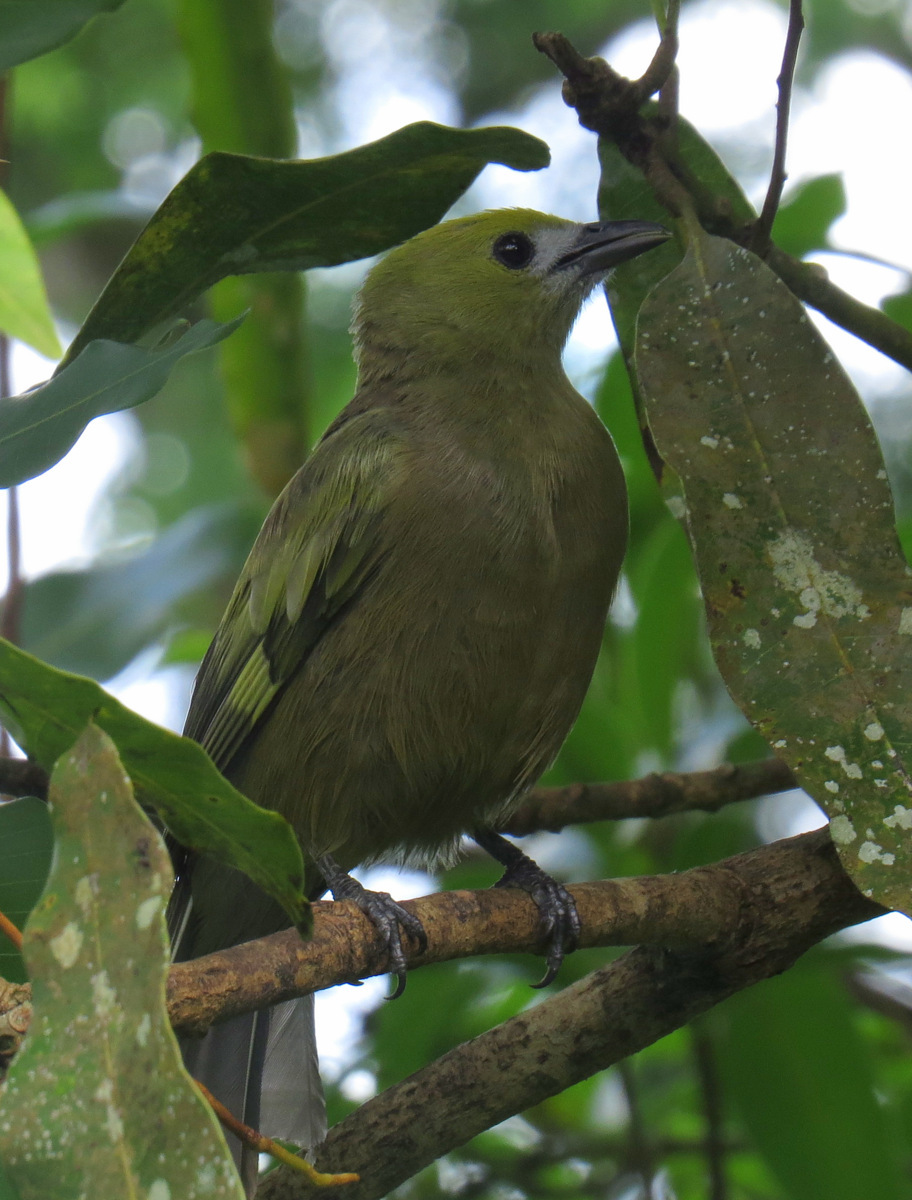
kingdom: Animalia
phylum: Chordata
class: Aves
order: Passeriformes
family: Thraupidae
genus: Thraupis
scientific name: Thraupis palmarum
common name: Palm tanager
